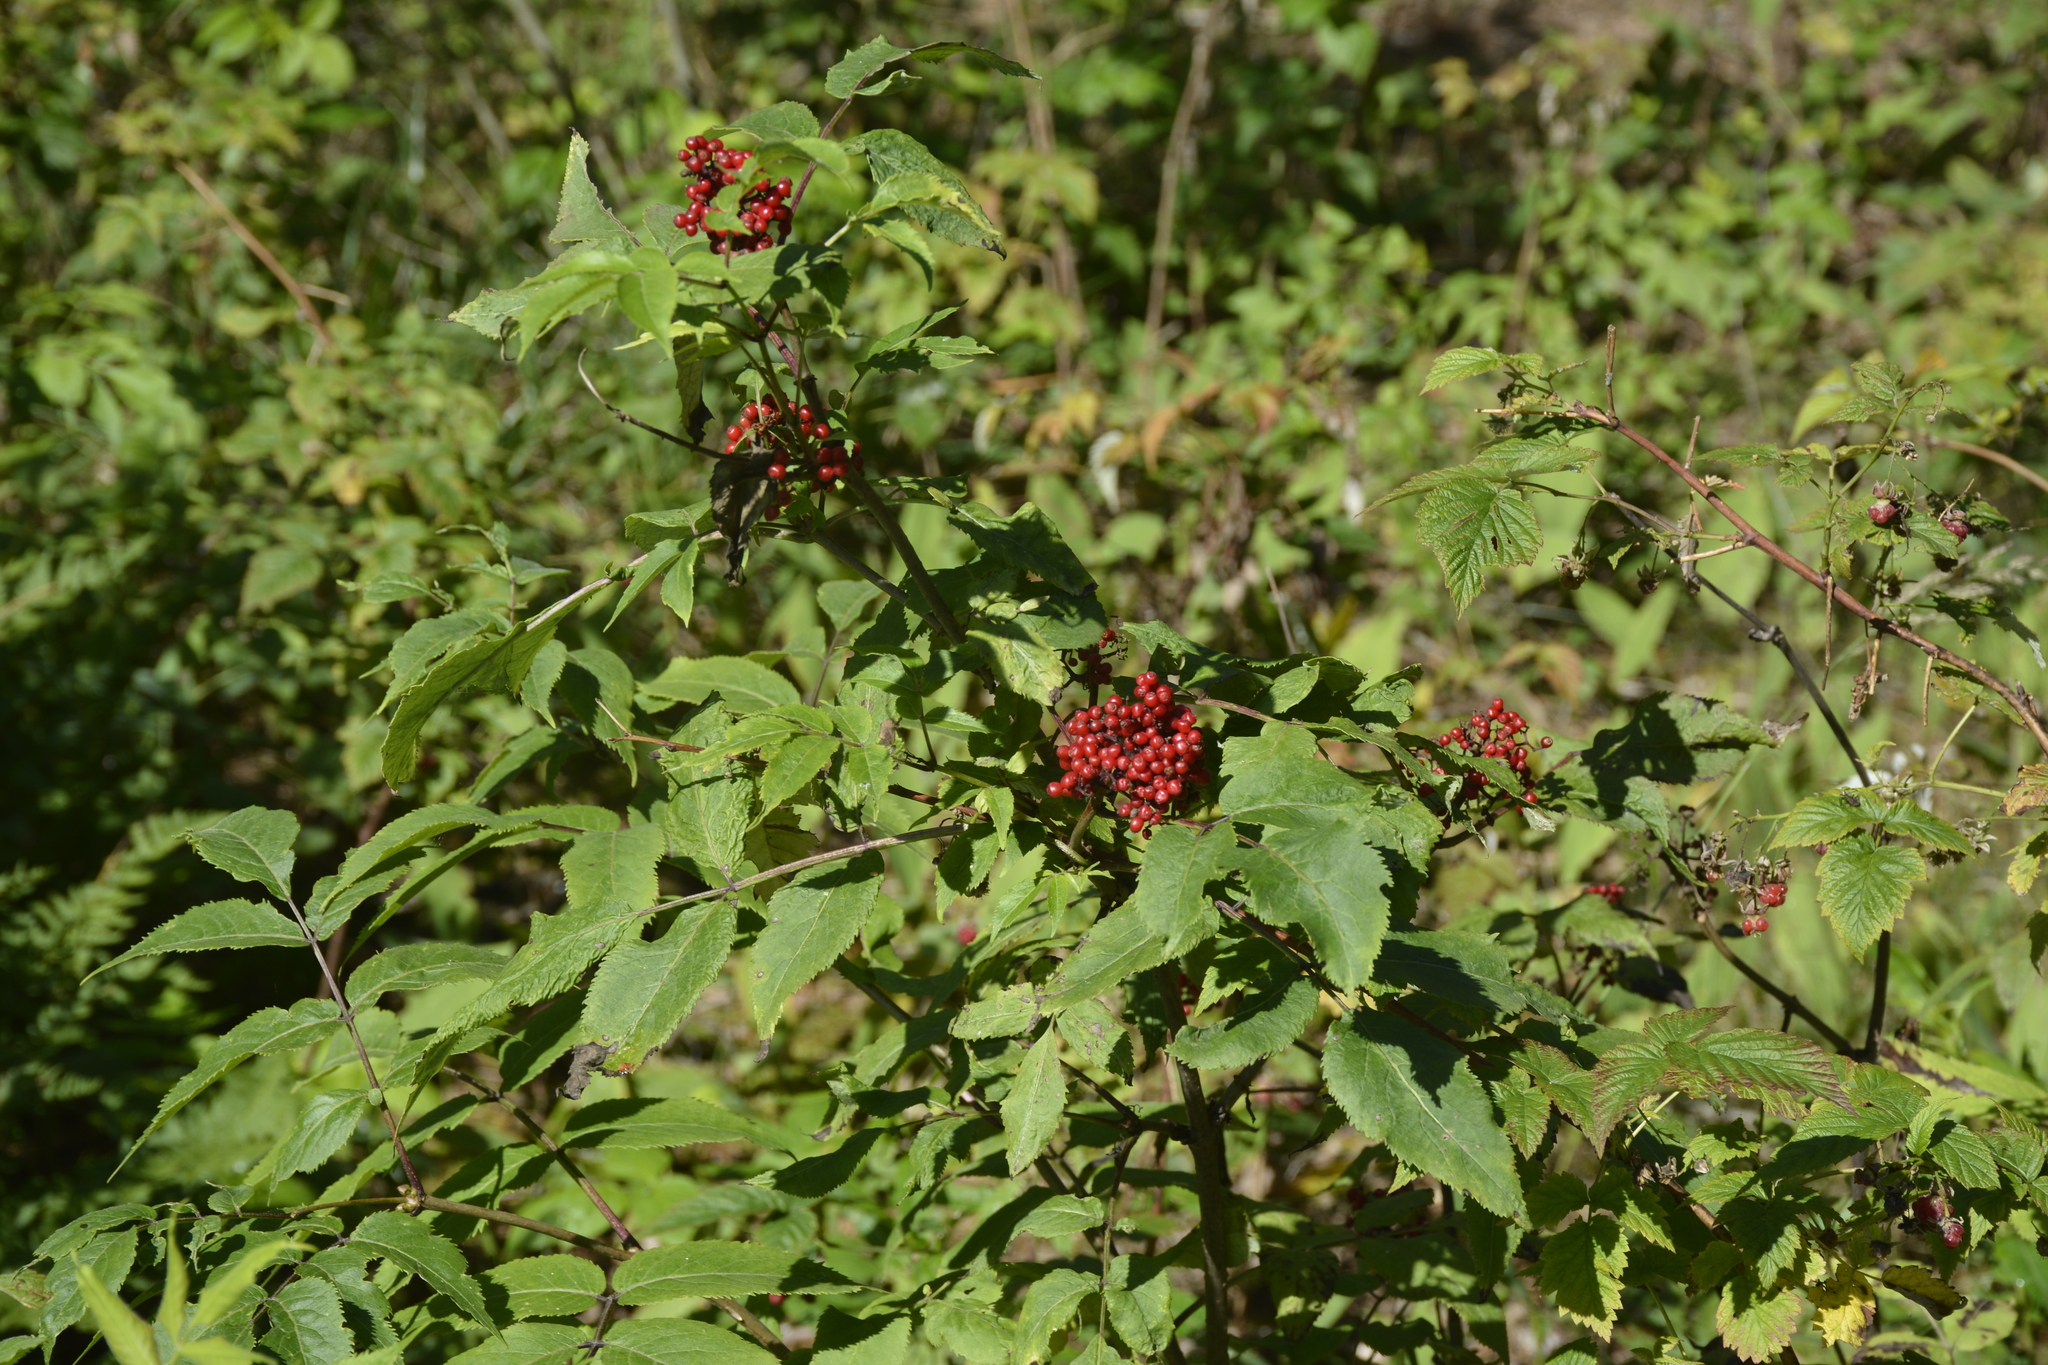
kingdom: Plantae
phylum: Tracheophyta
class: Magnoliopsida
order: Dipsacales
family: Viburnaceae
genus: Sambucus
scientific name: Sambucus racemosa
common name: Red-berried elder
